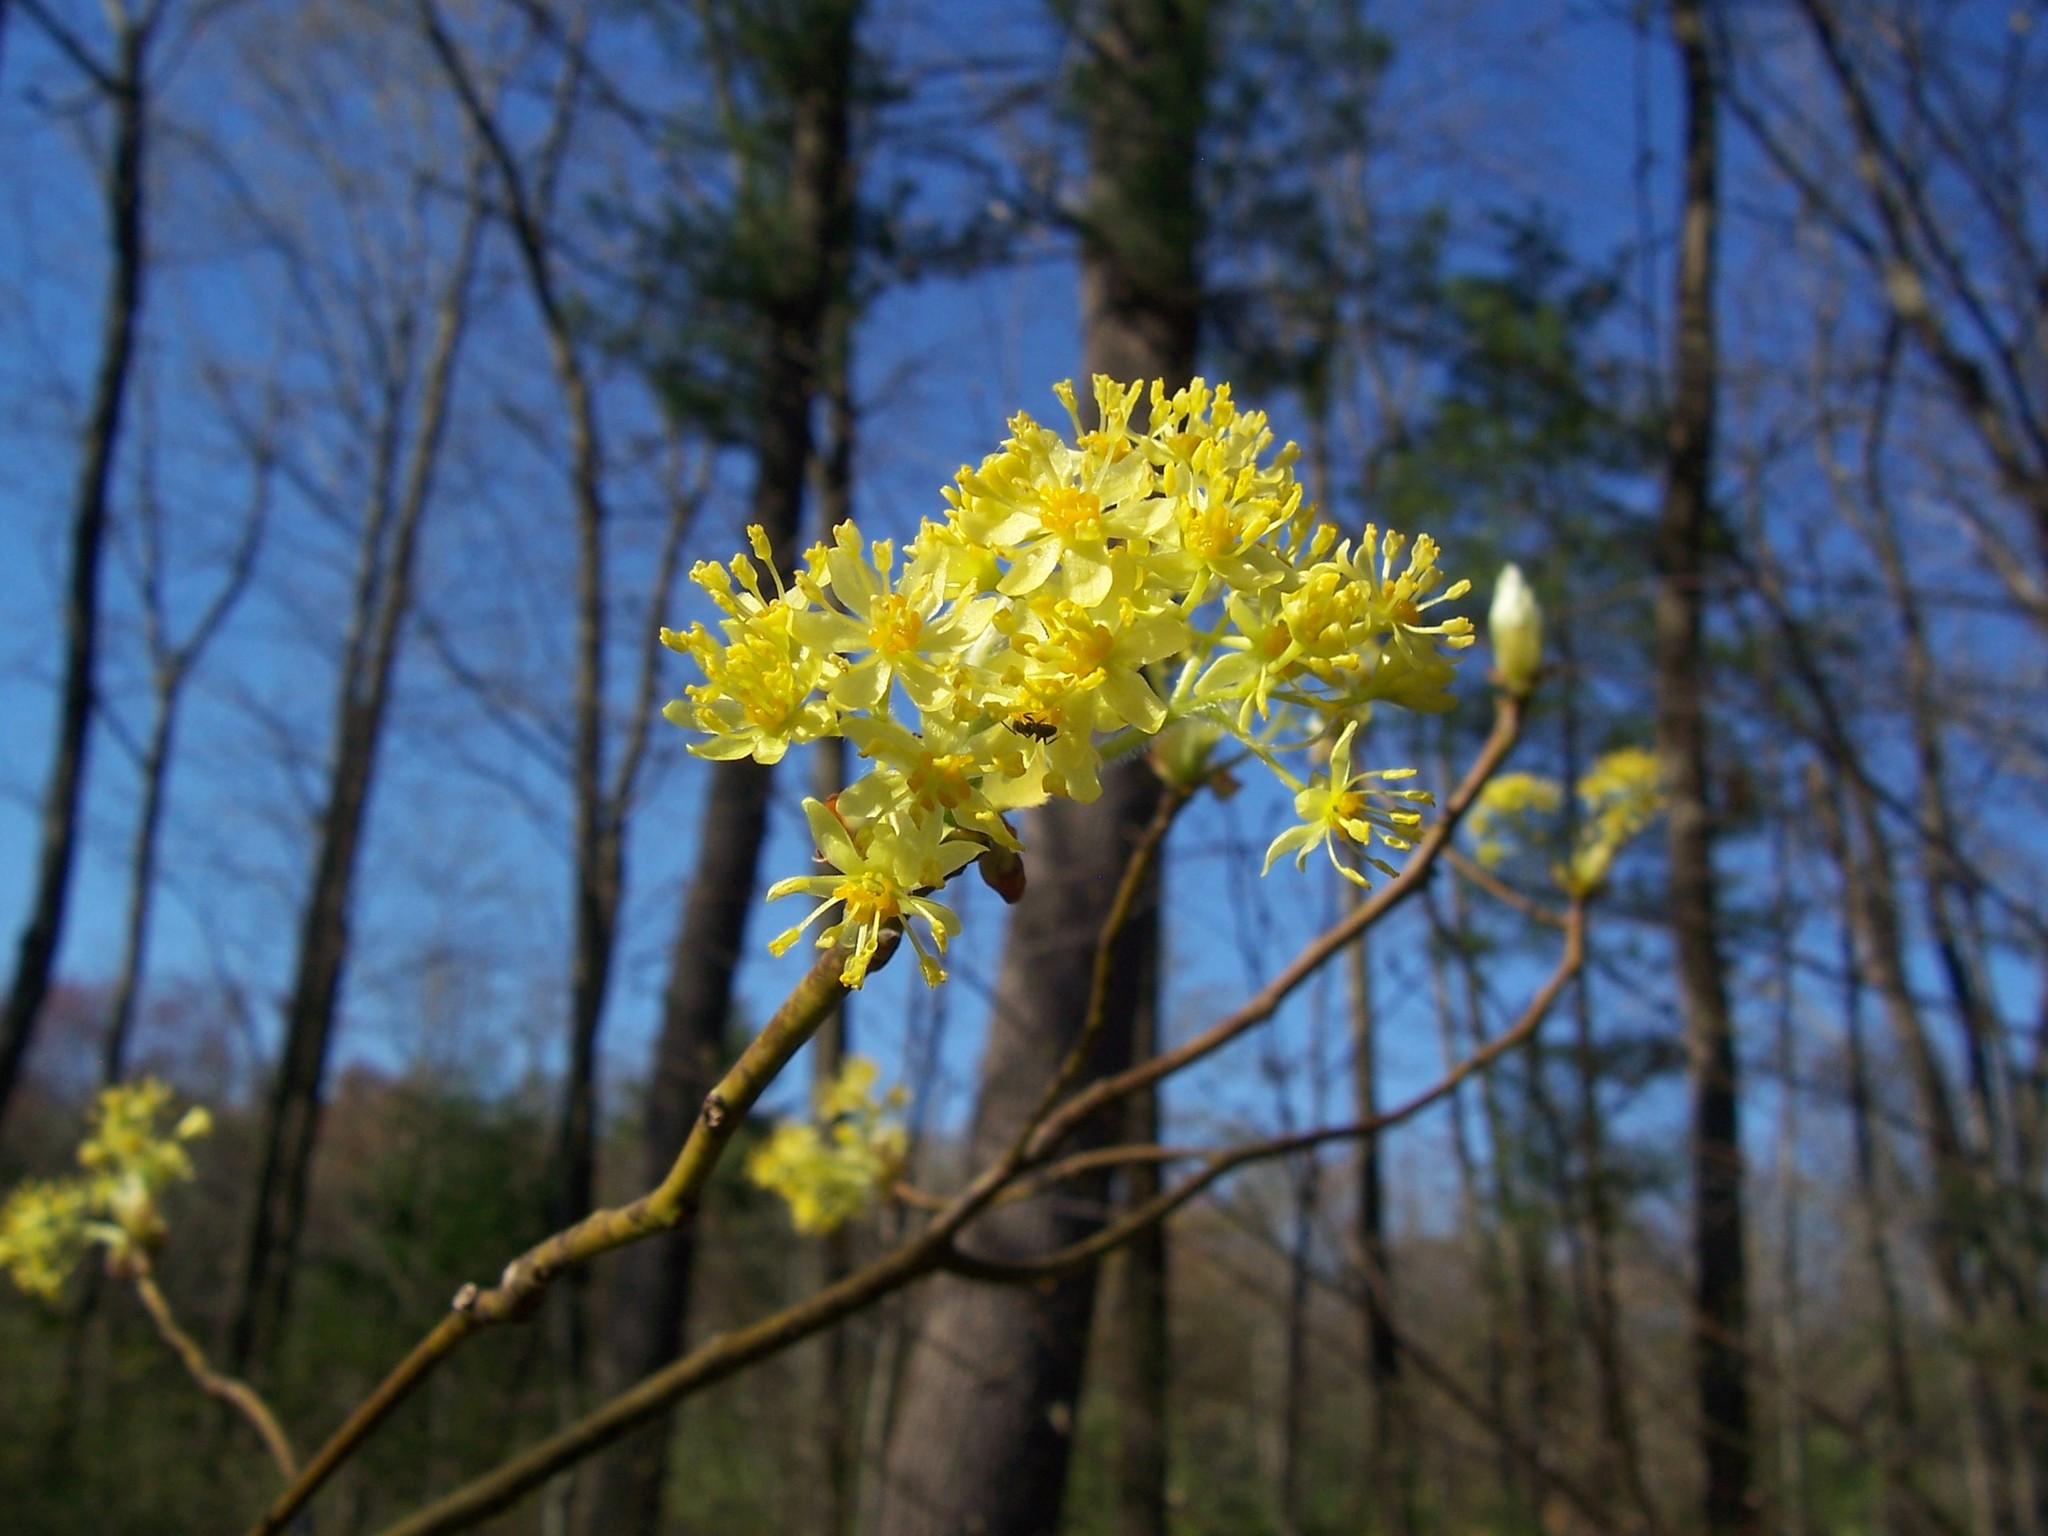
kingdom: Plantae
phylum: Tracheophyta
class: Magnoliopsida
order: Laurales
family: Lauraceae
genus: Sassafras
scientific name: Sassafras albidum
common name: Sassafras
